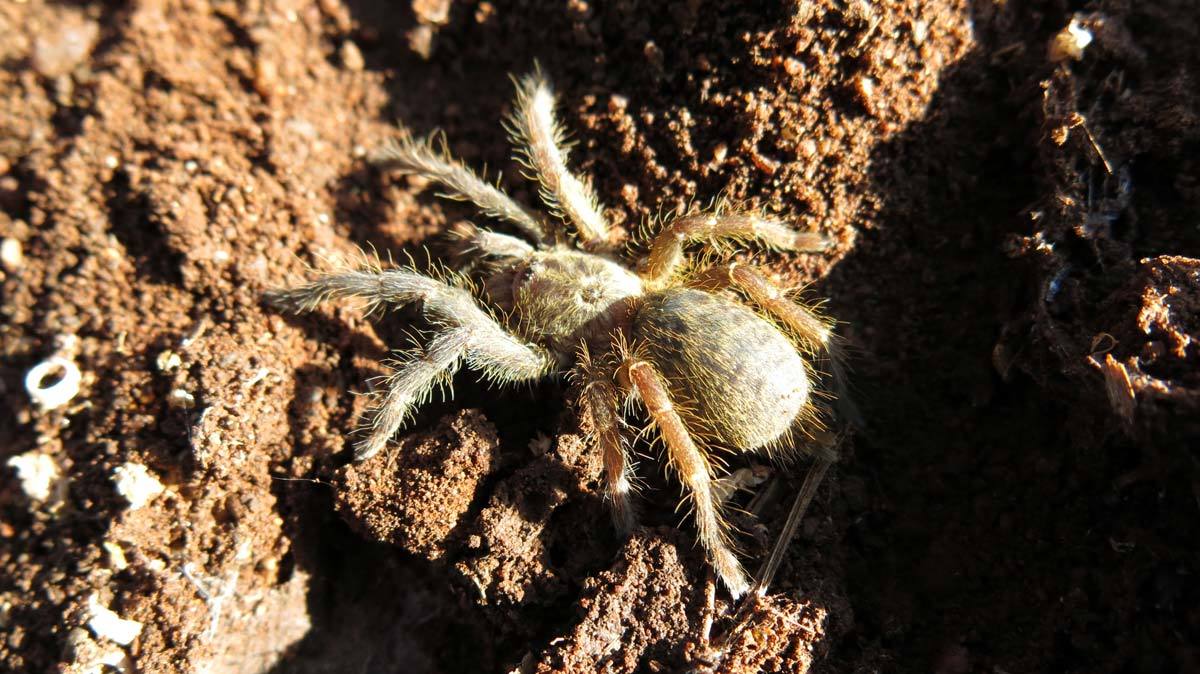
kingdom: Animalia
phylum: Arthropoda
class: Arachnida
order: Araneae
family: Theraphosidae
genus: Ceratogyrus
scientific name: Ceratogyrus darlingi
